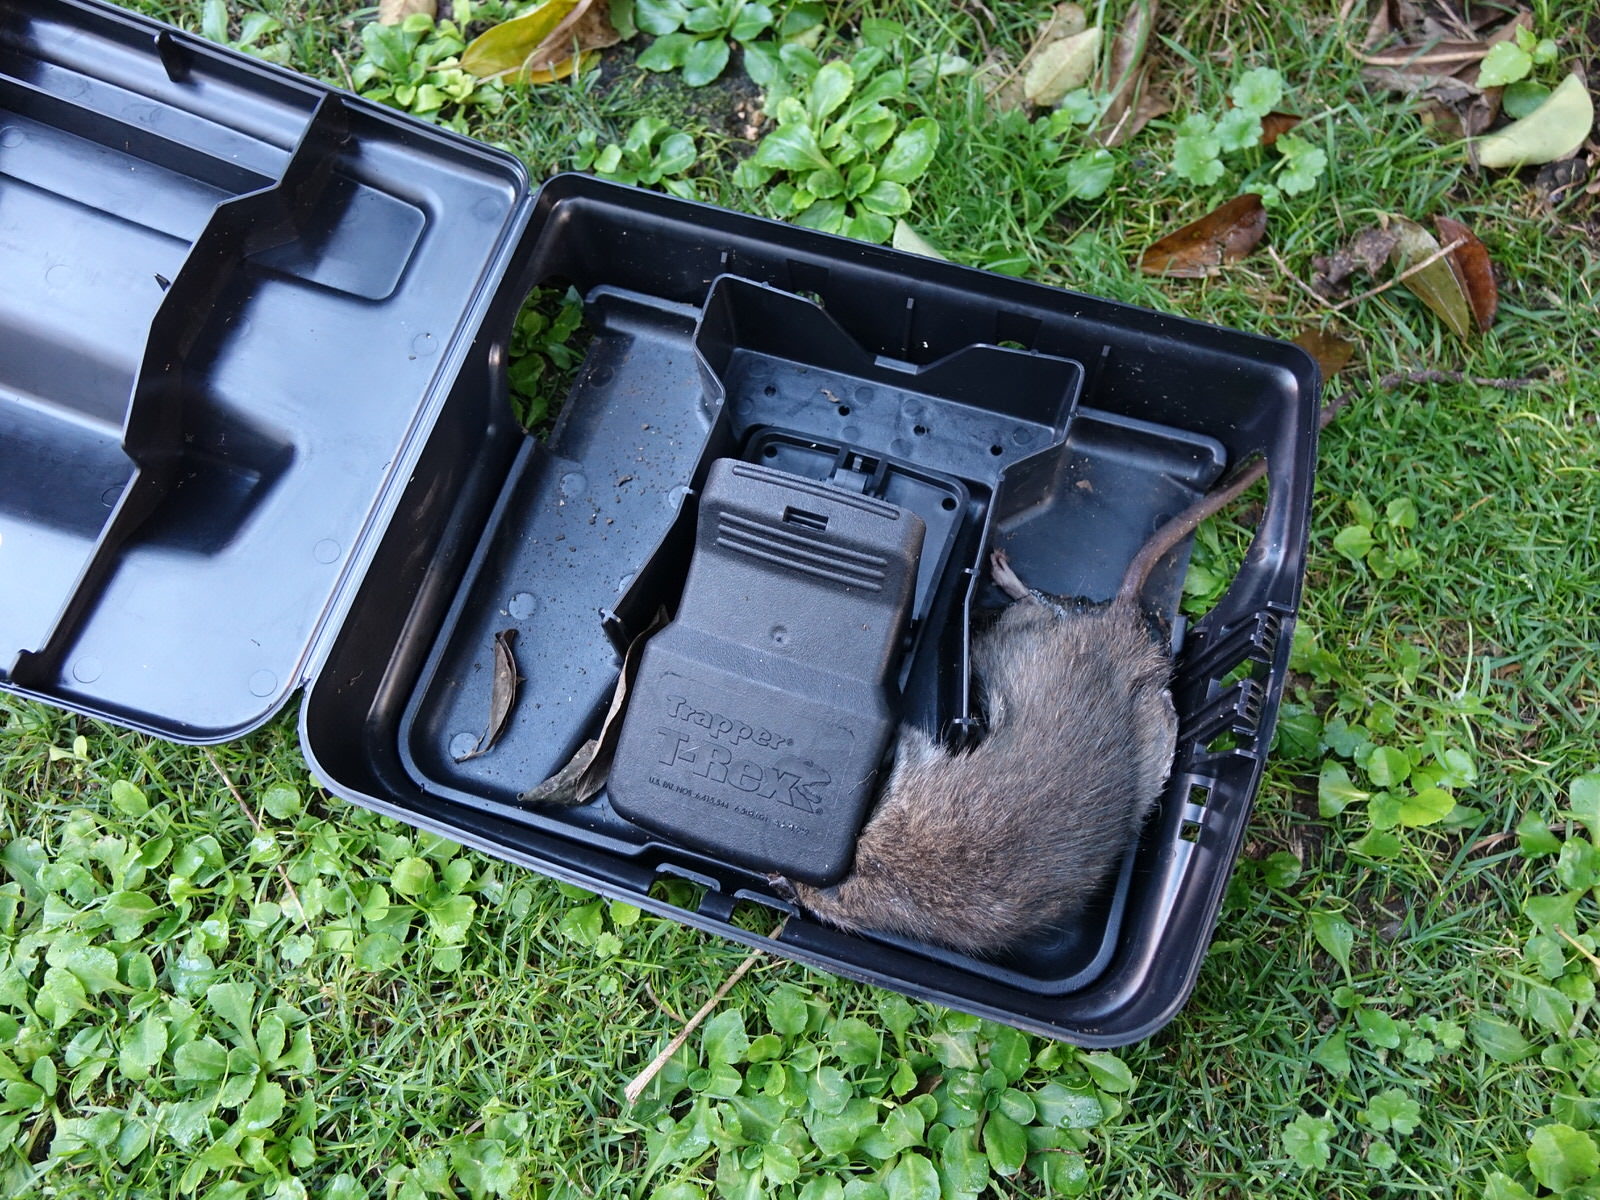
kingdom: Animalia
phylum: Chordata
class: Mammalia
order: Rodentia
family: Muridae
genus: Rattus
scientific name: Rattus norvegicus
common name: Brown rat
